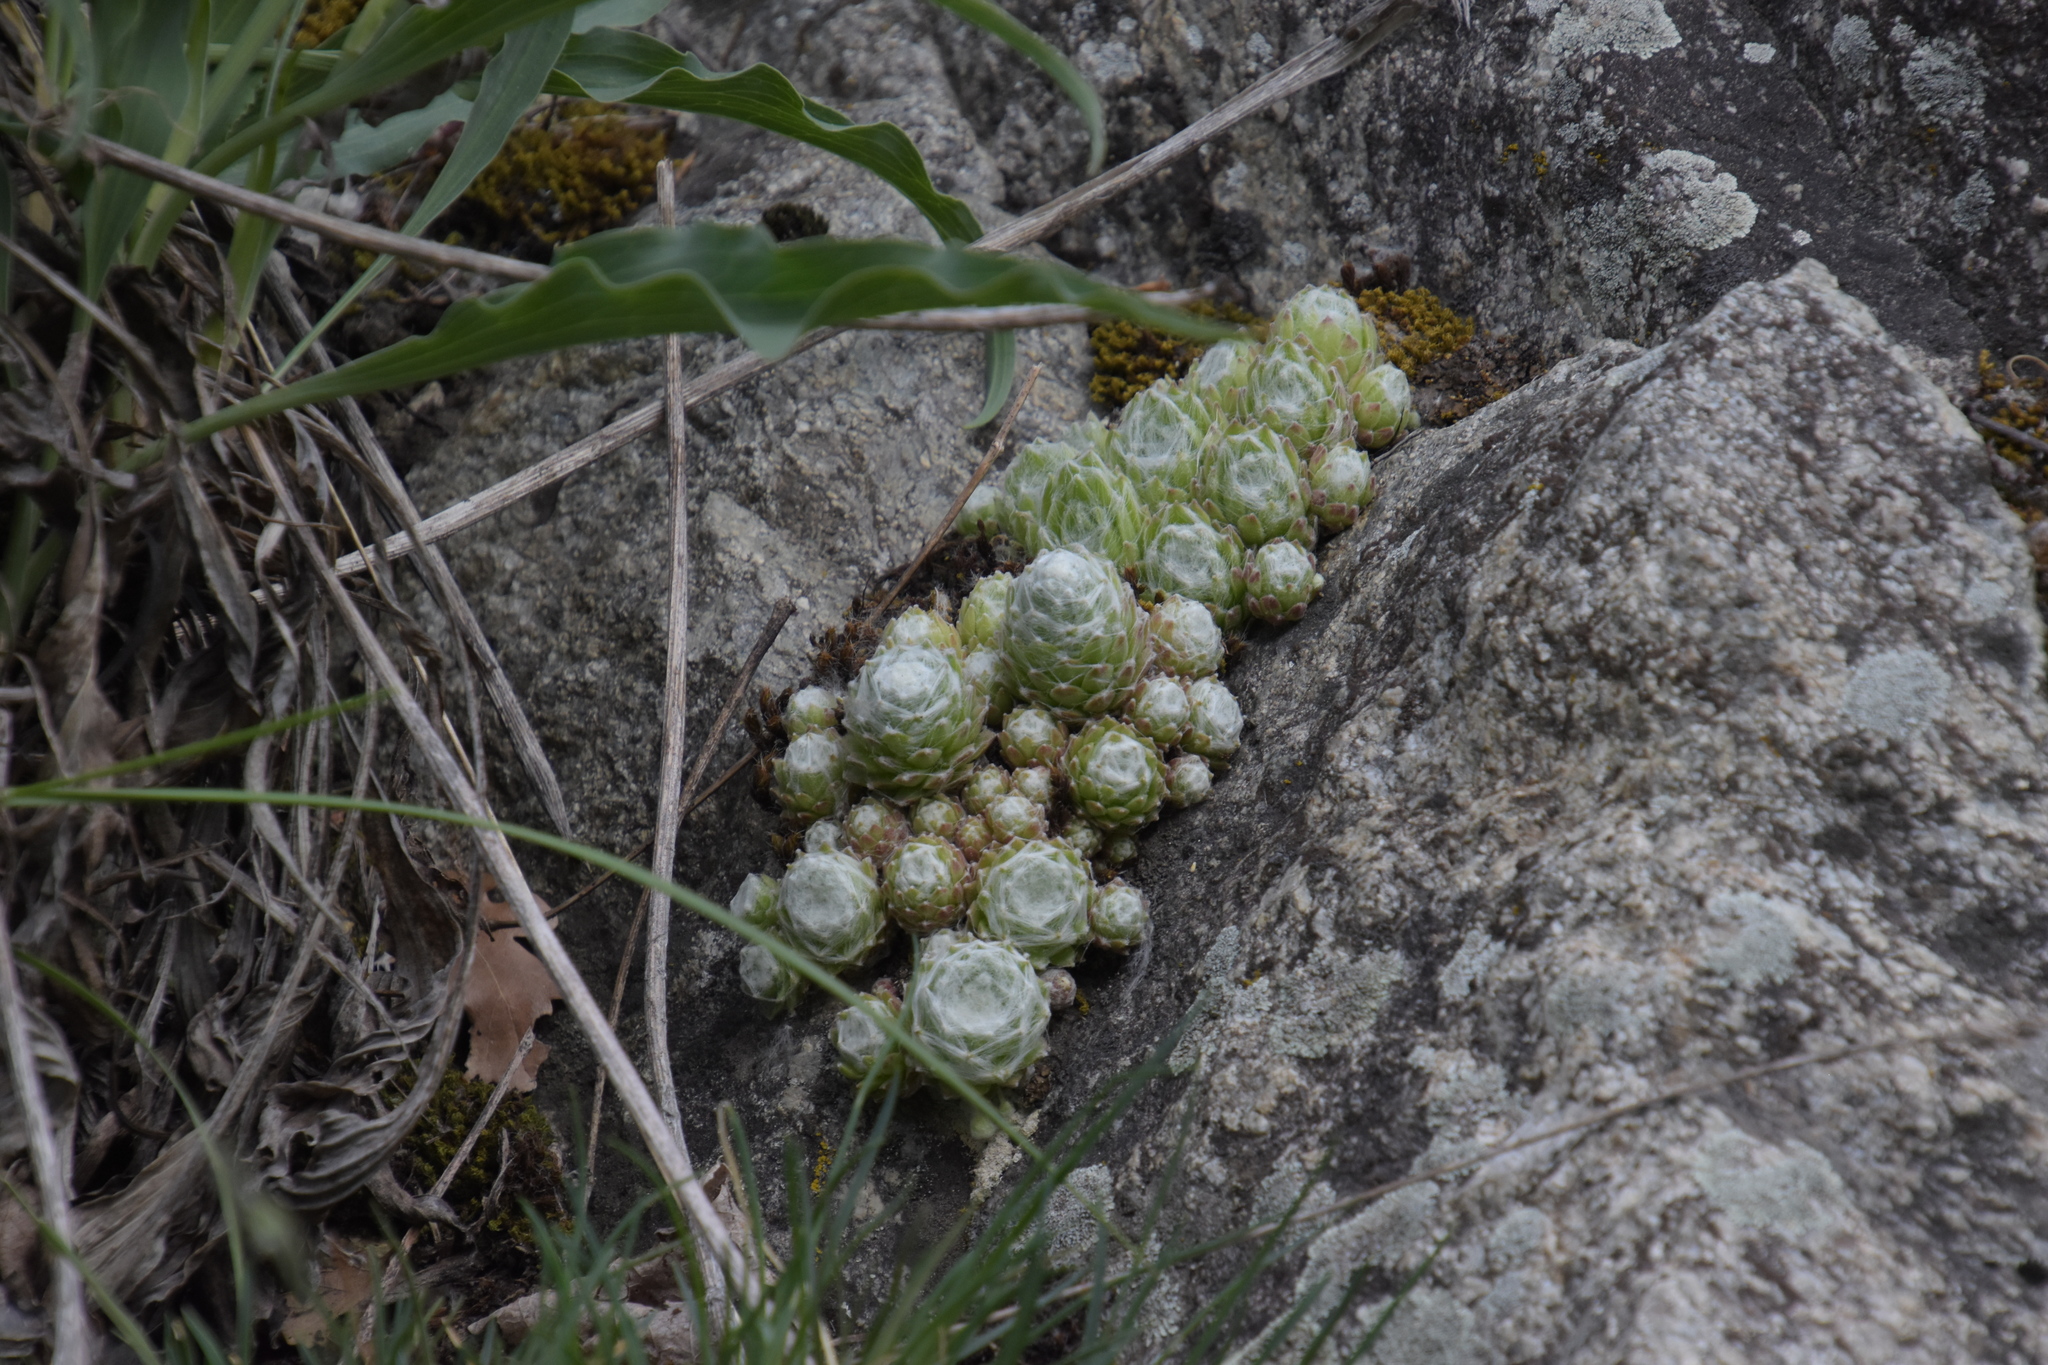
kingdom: Plantae
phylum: Tracheophyta
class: Magnoliopsida
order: Saxifragales
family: Crassulaceae
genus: Sempervivum
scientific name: Sempervivum arachnoideum
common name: Cobweb house-leek
